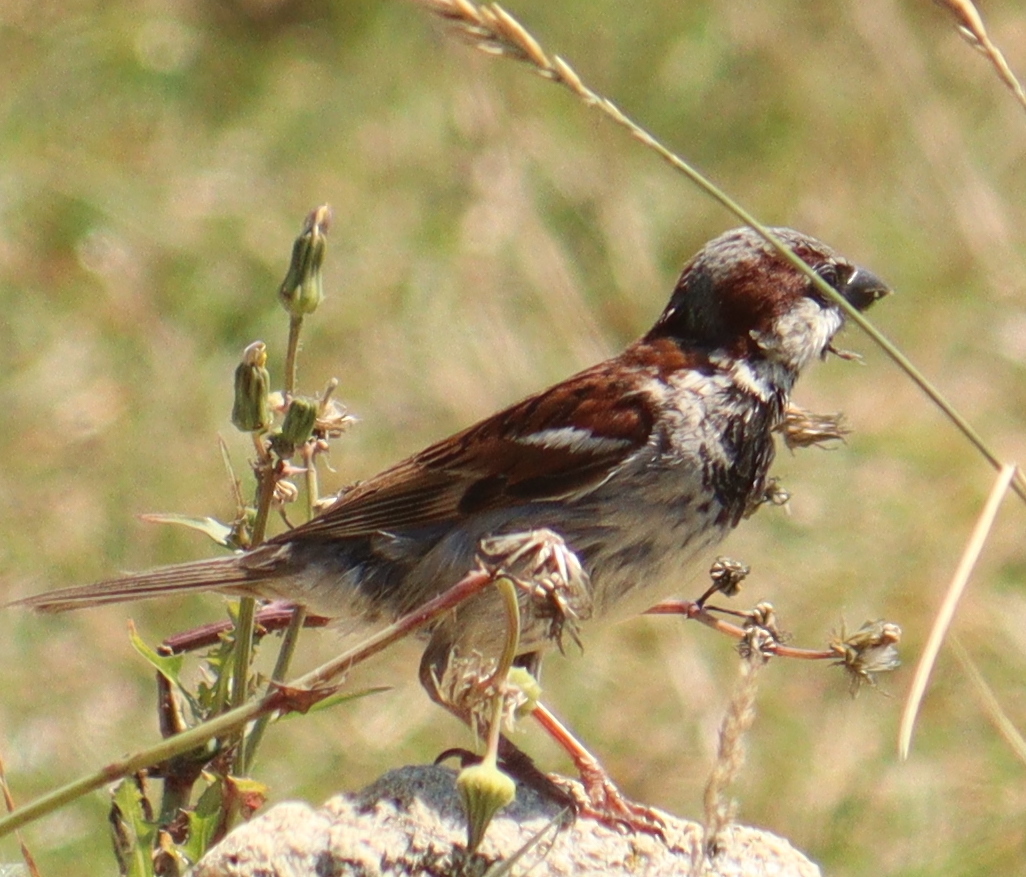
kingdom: Animalia
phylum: Chordata
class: Aves
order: Passeriformes
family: Passeridae
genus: Passer
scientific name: Passer domesticus
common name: House sparrow
